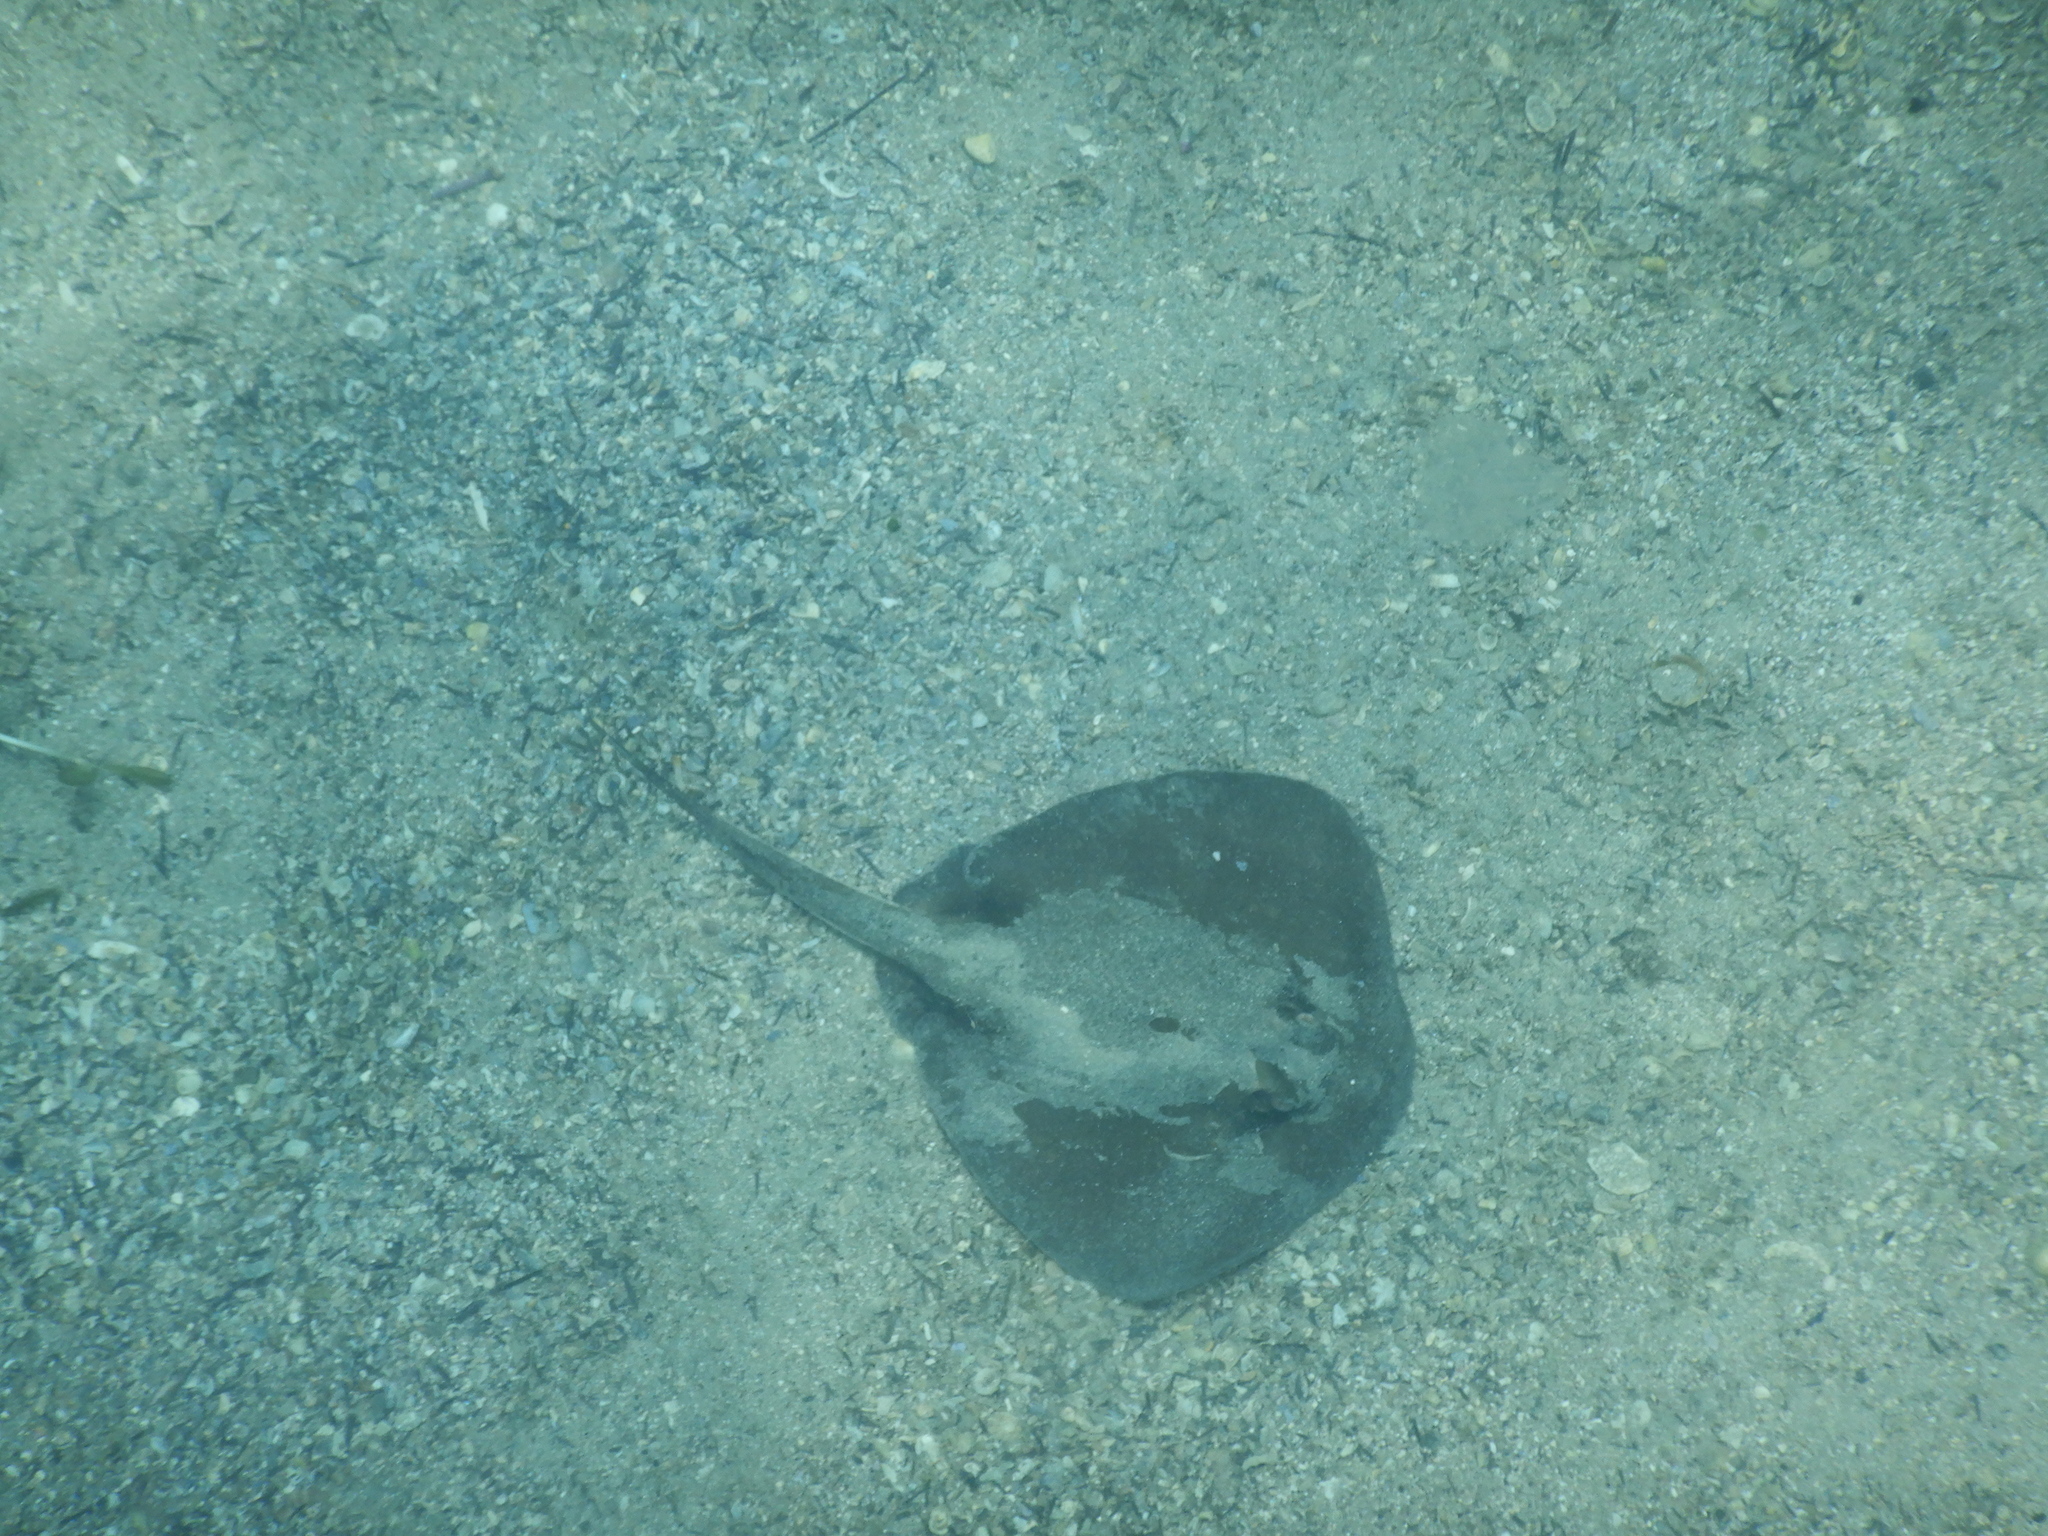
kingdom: Animalia
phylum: Chordata
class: Elasmobranchii
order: Myliobatiformes
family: Urolophidae
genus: Urolophus
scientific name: Urolophus kapalensis
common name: Kapala stingaree
